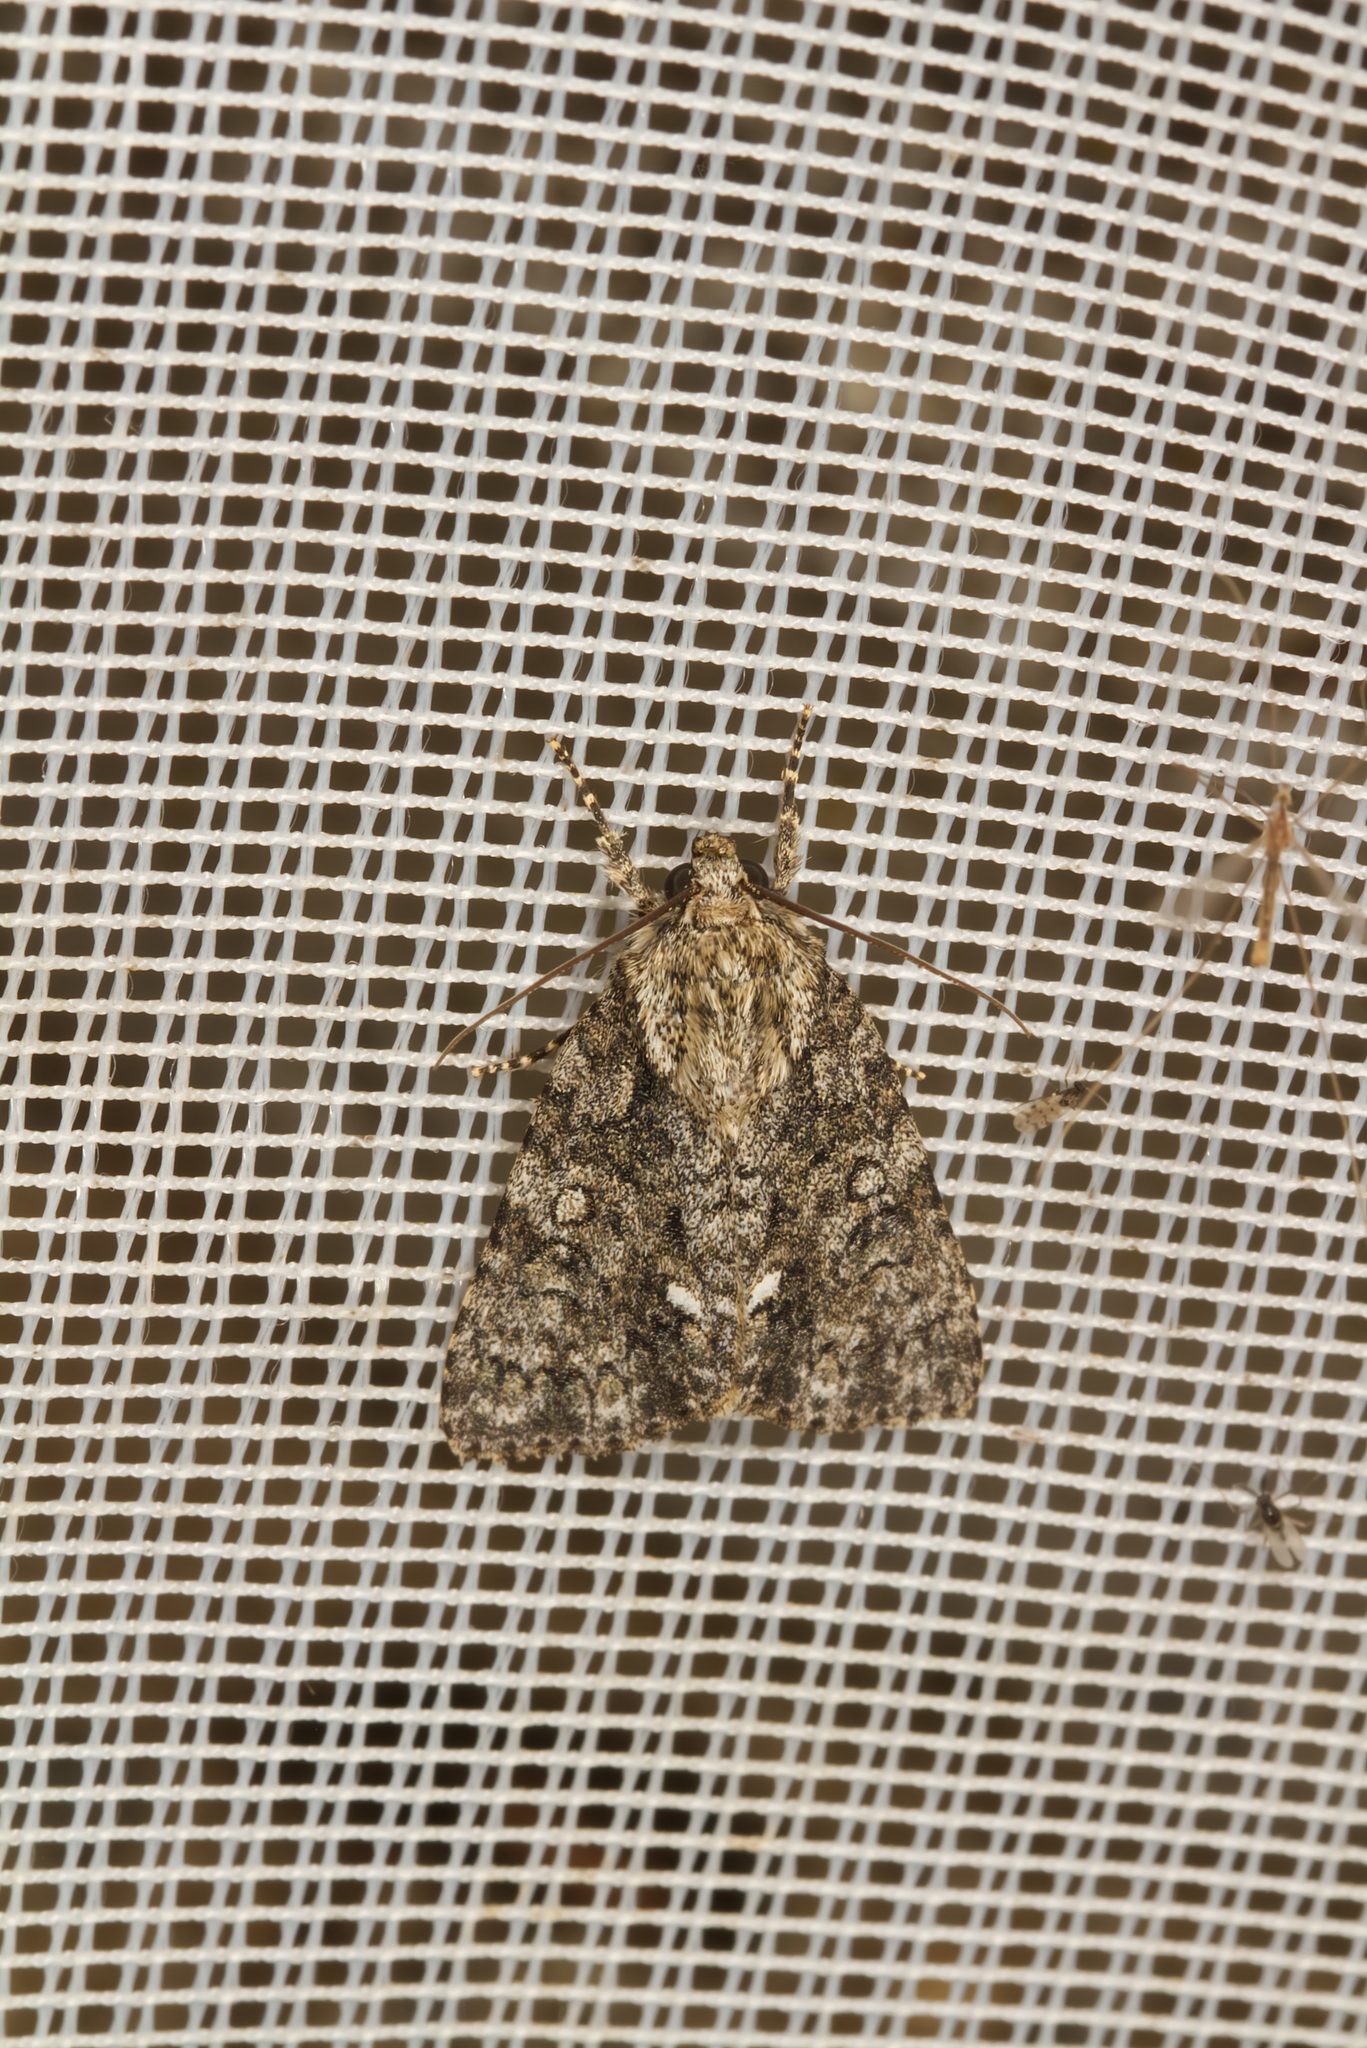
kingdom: Animalia
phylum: Arthropoda
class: Insecta
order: Lepidoptera
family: Noctuidae
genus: Acronicta
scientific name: Acronicta rumicis
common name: Knot grass
